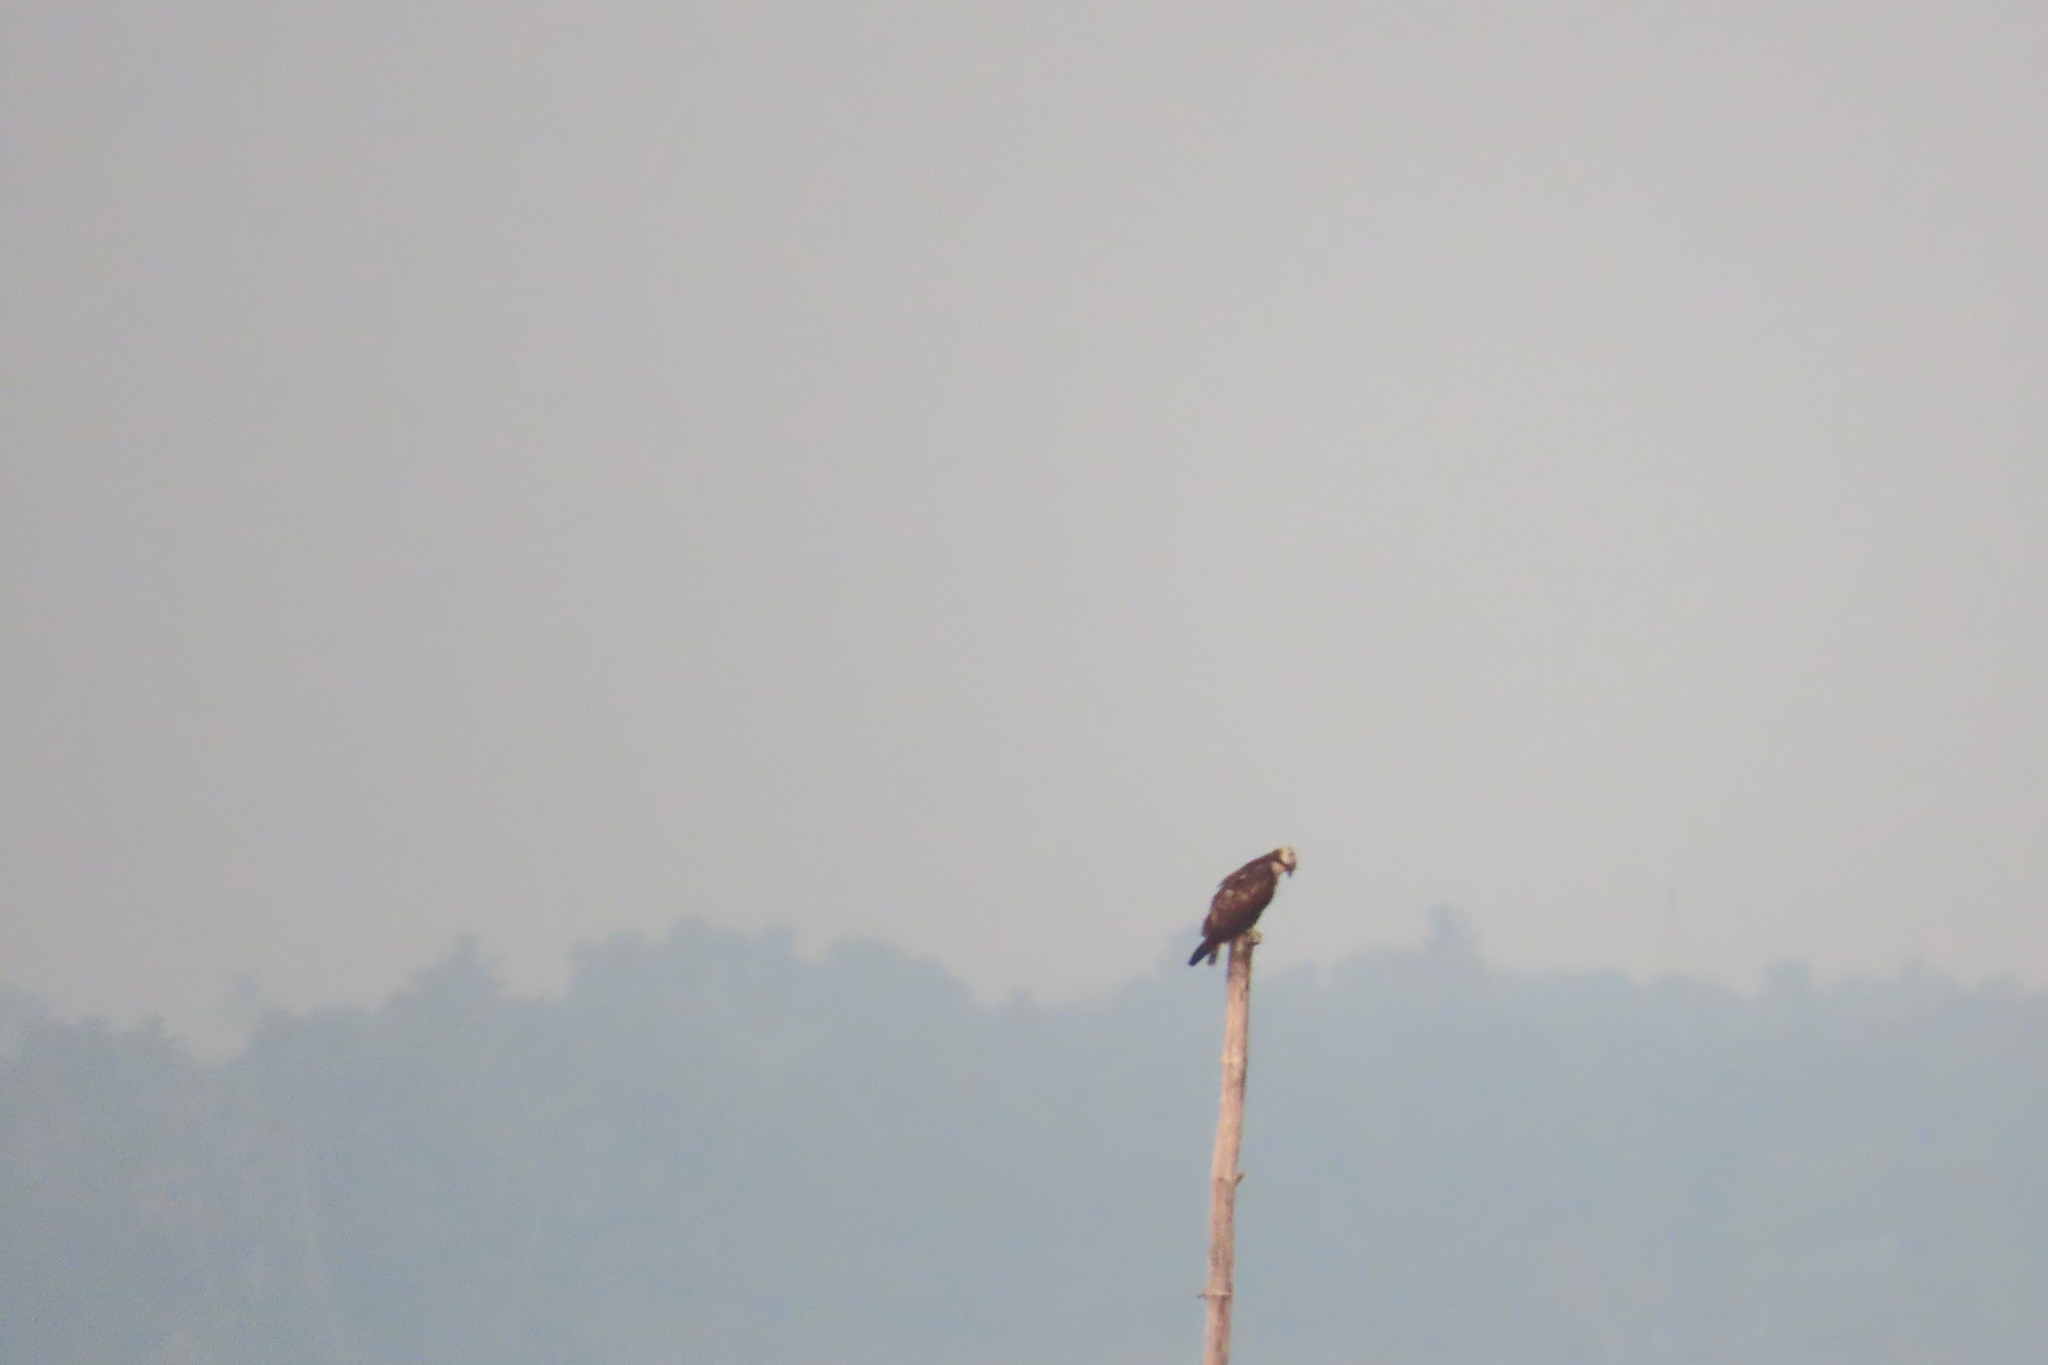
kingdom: Animalia
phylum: Chordata
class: Aves
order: Accipitriformes
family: Pandionidae
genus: Pandion
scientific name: Pandion haliaetus
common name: Osprey
